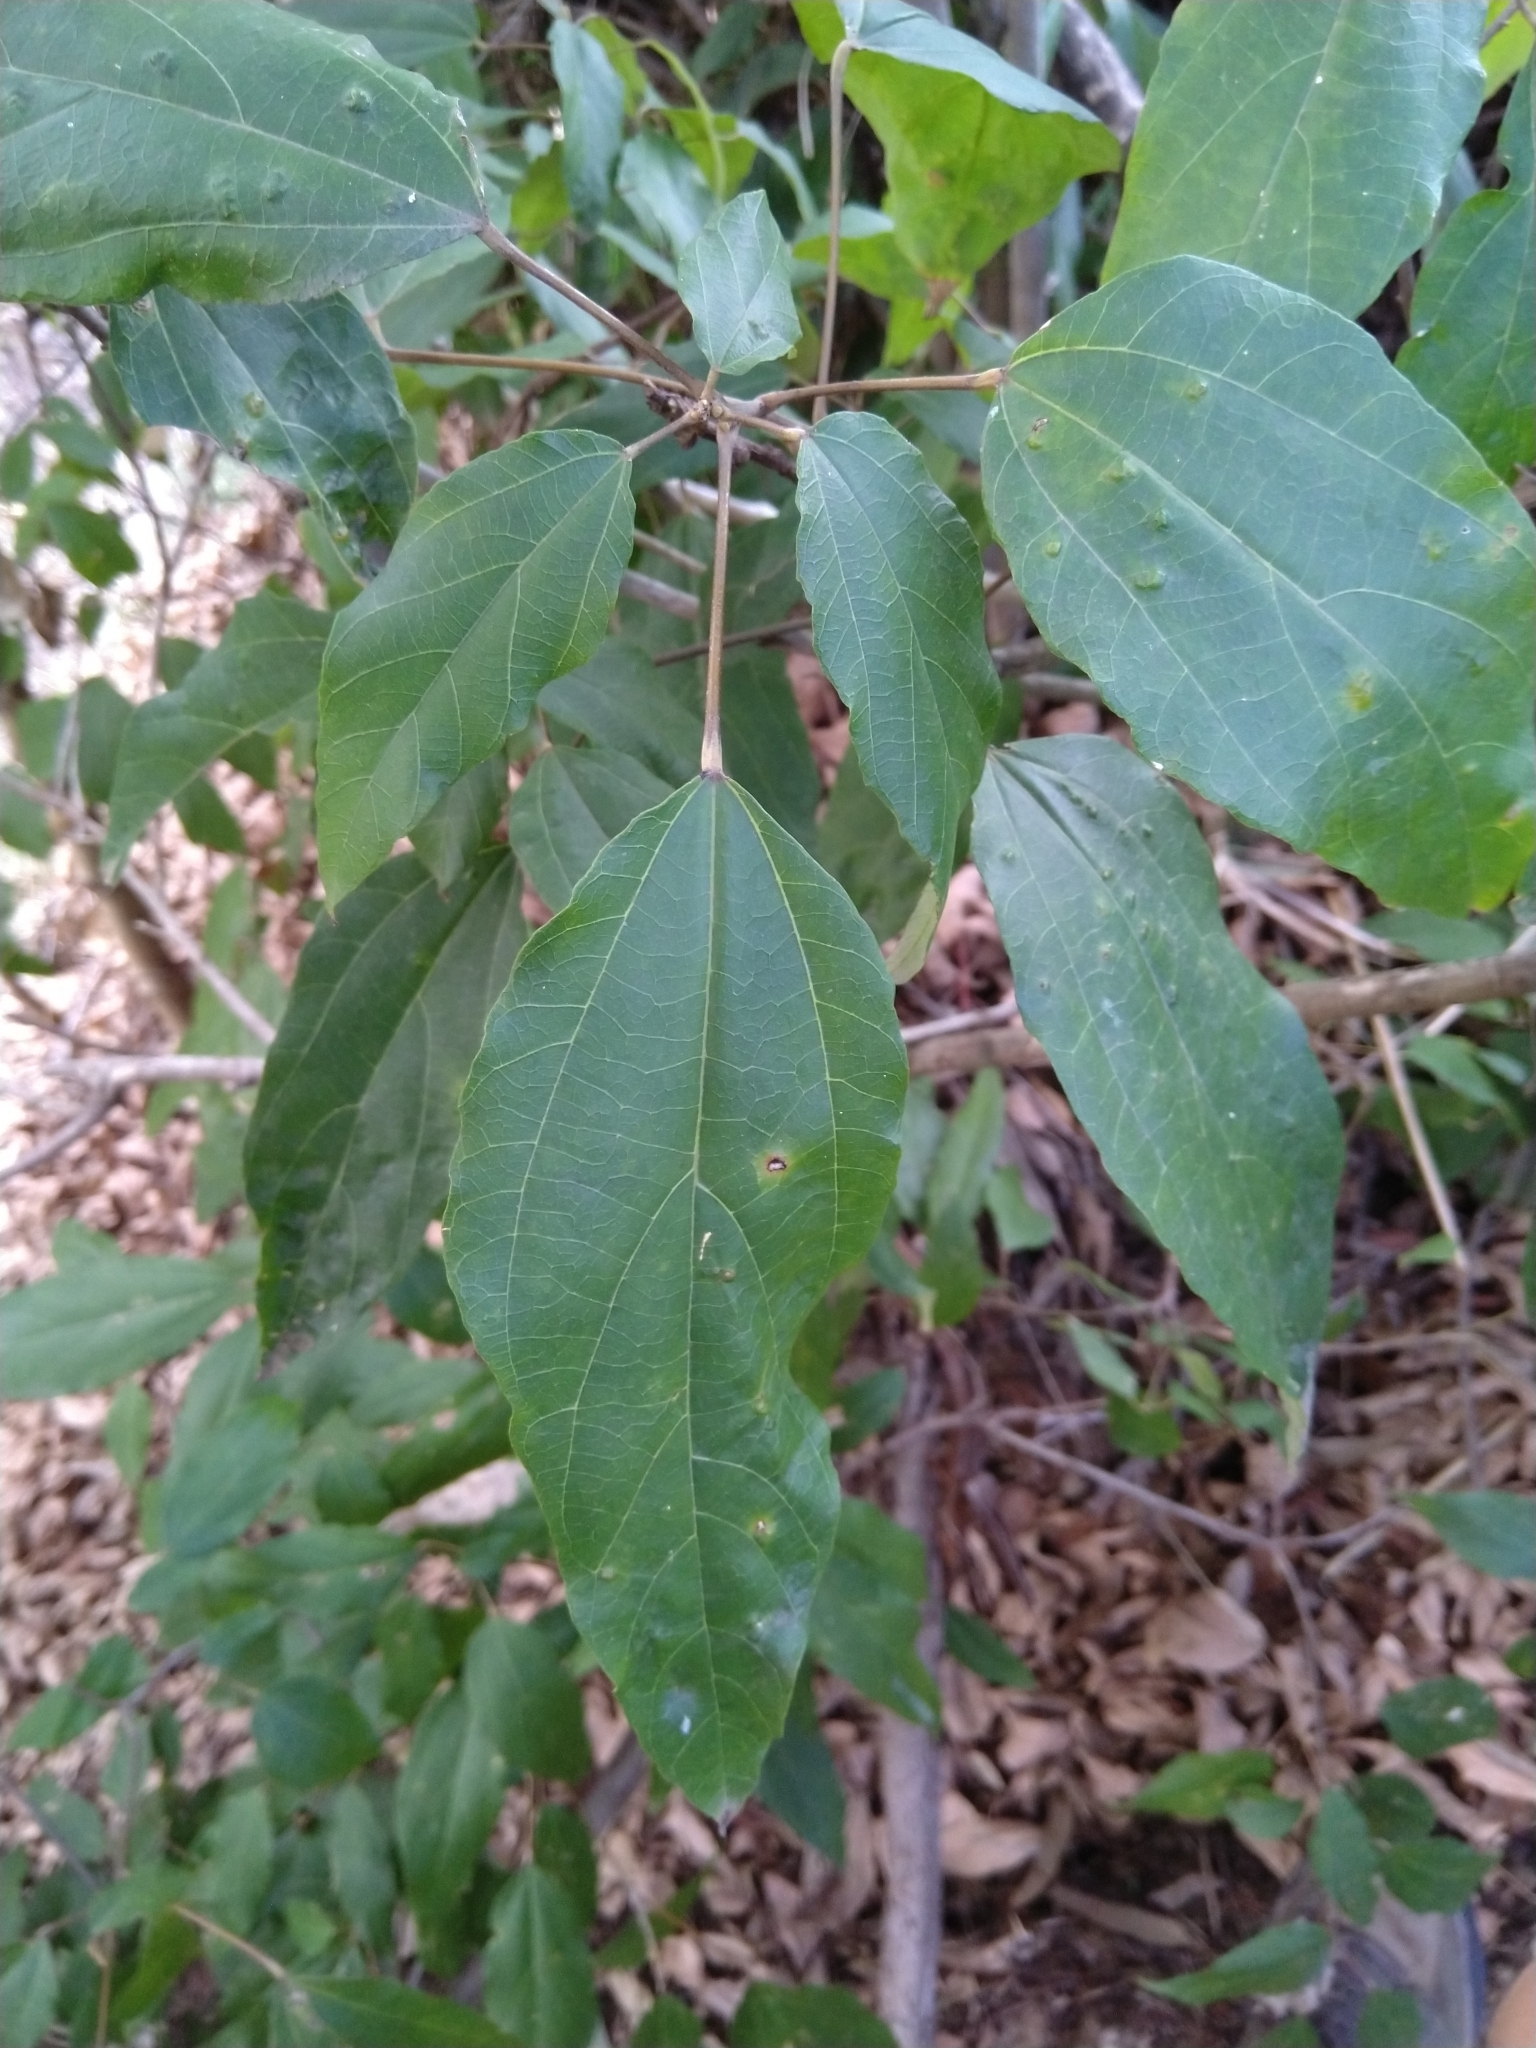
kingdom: Plantae
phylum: Tracheophyta
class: Magnoliopsida
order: Malpighiales
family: Euphorbiaceae
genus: Mallotus
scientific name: Mallotus philippensis
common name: Kamala tree
